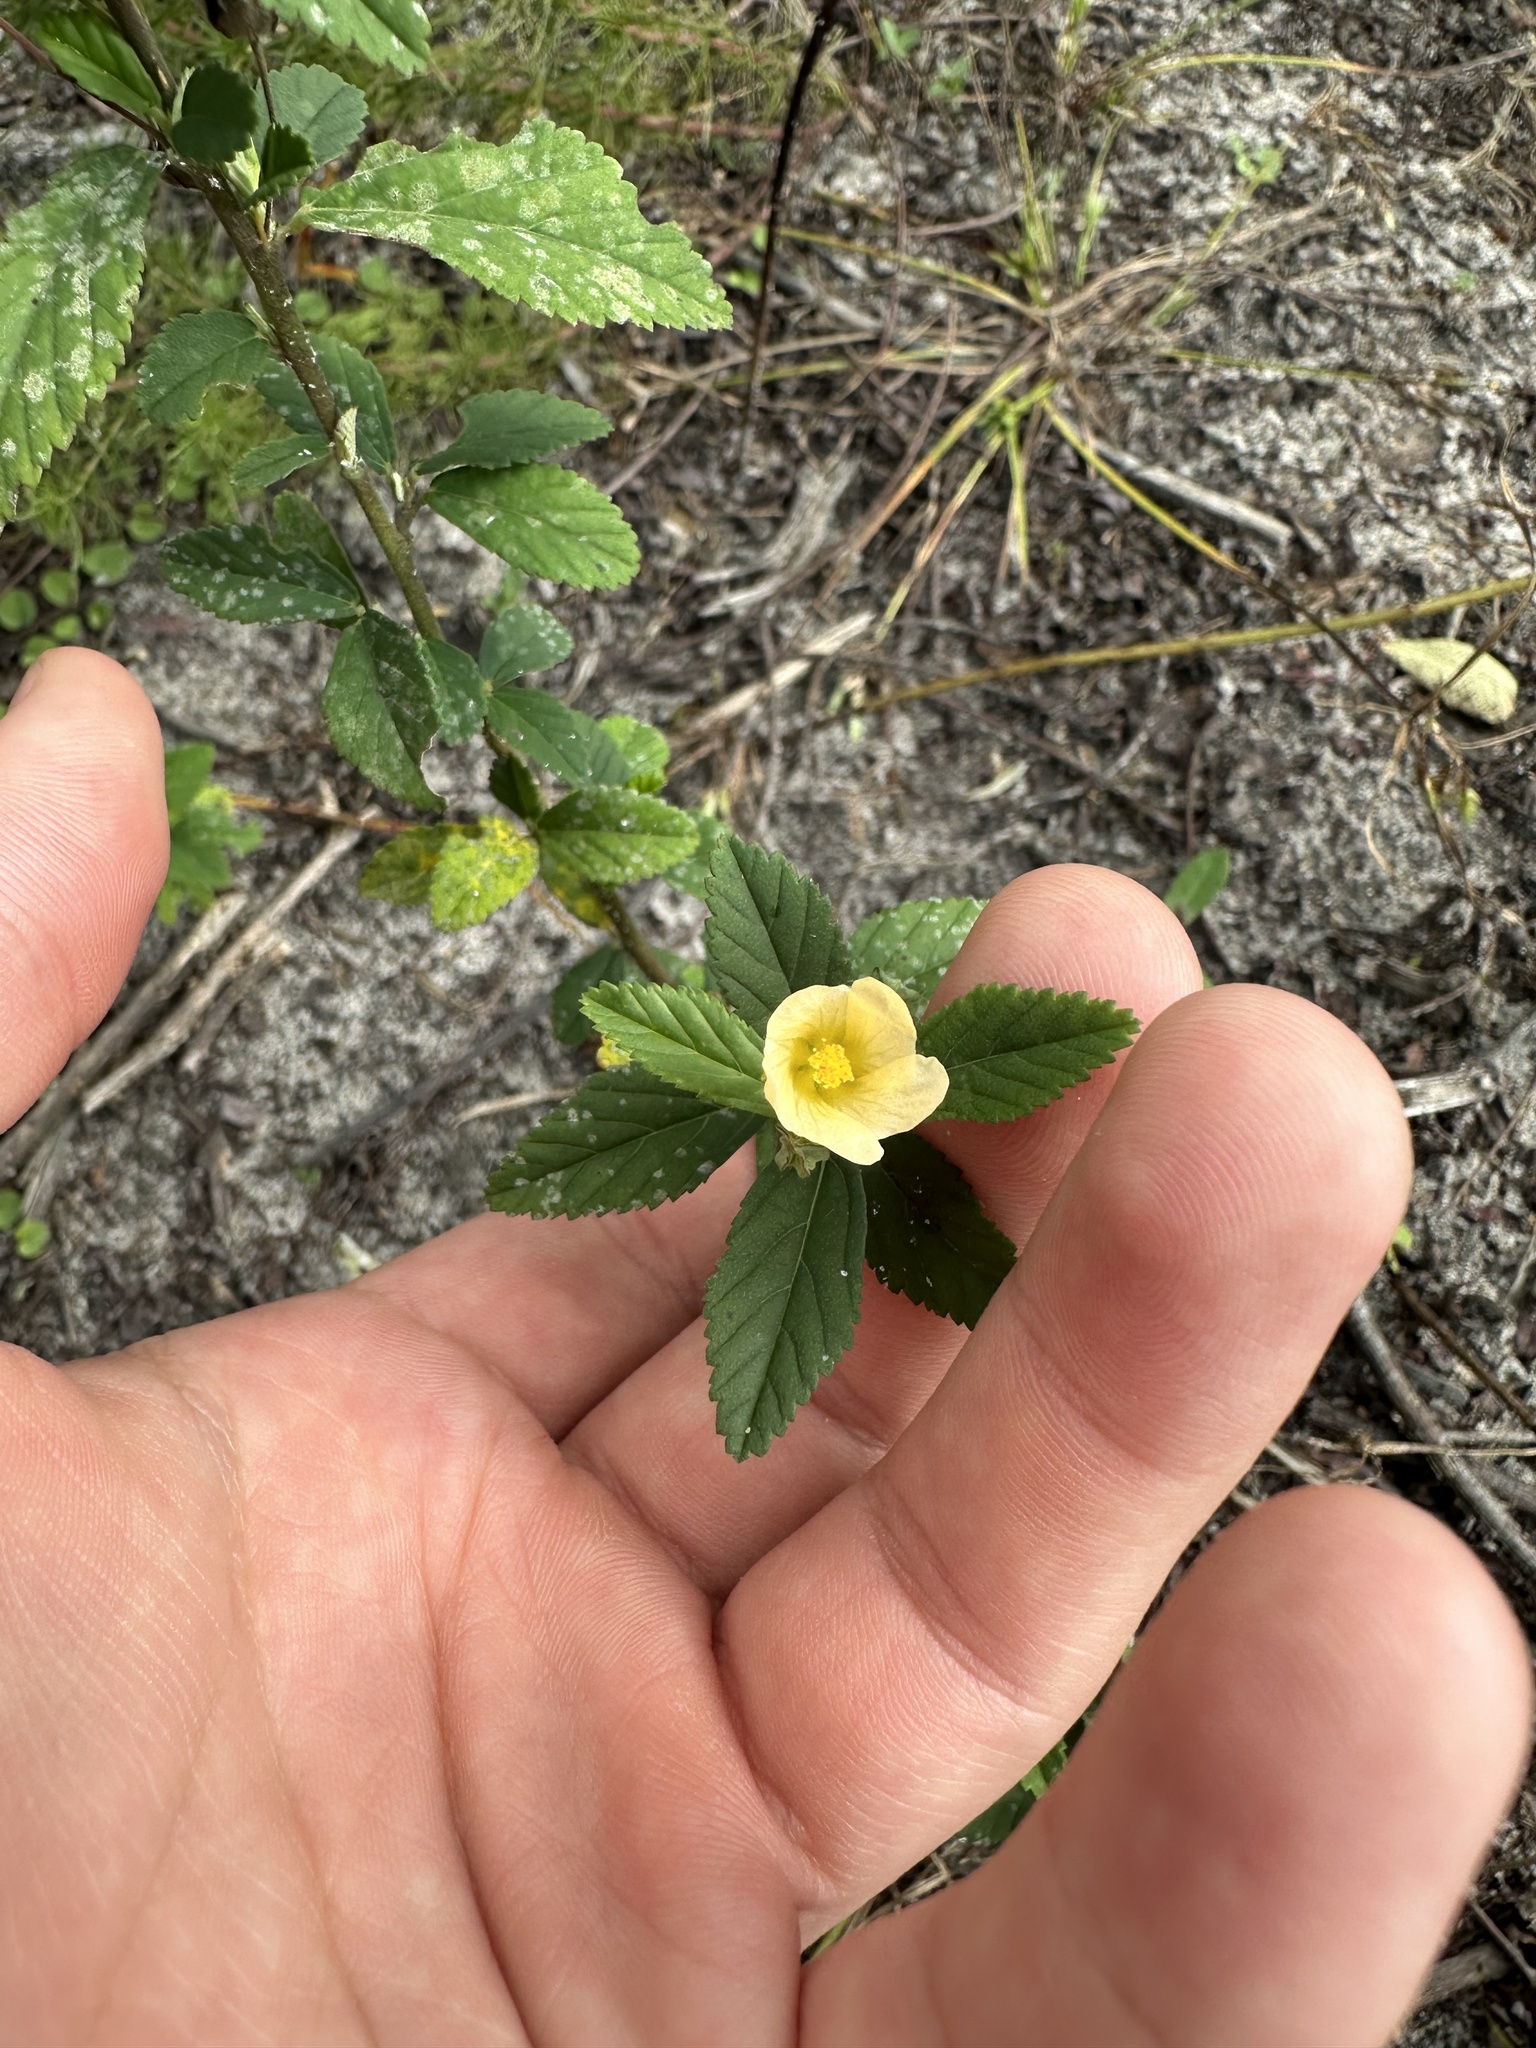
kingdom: Plantae
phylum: Tracheophyta
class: Magnoliopsida
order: Malvales
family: Malvaceae
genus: Sida
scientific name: Sida rhombifolia
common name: Queensland-hemp
